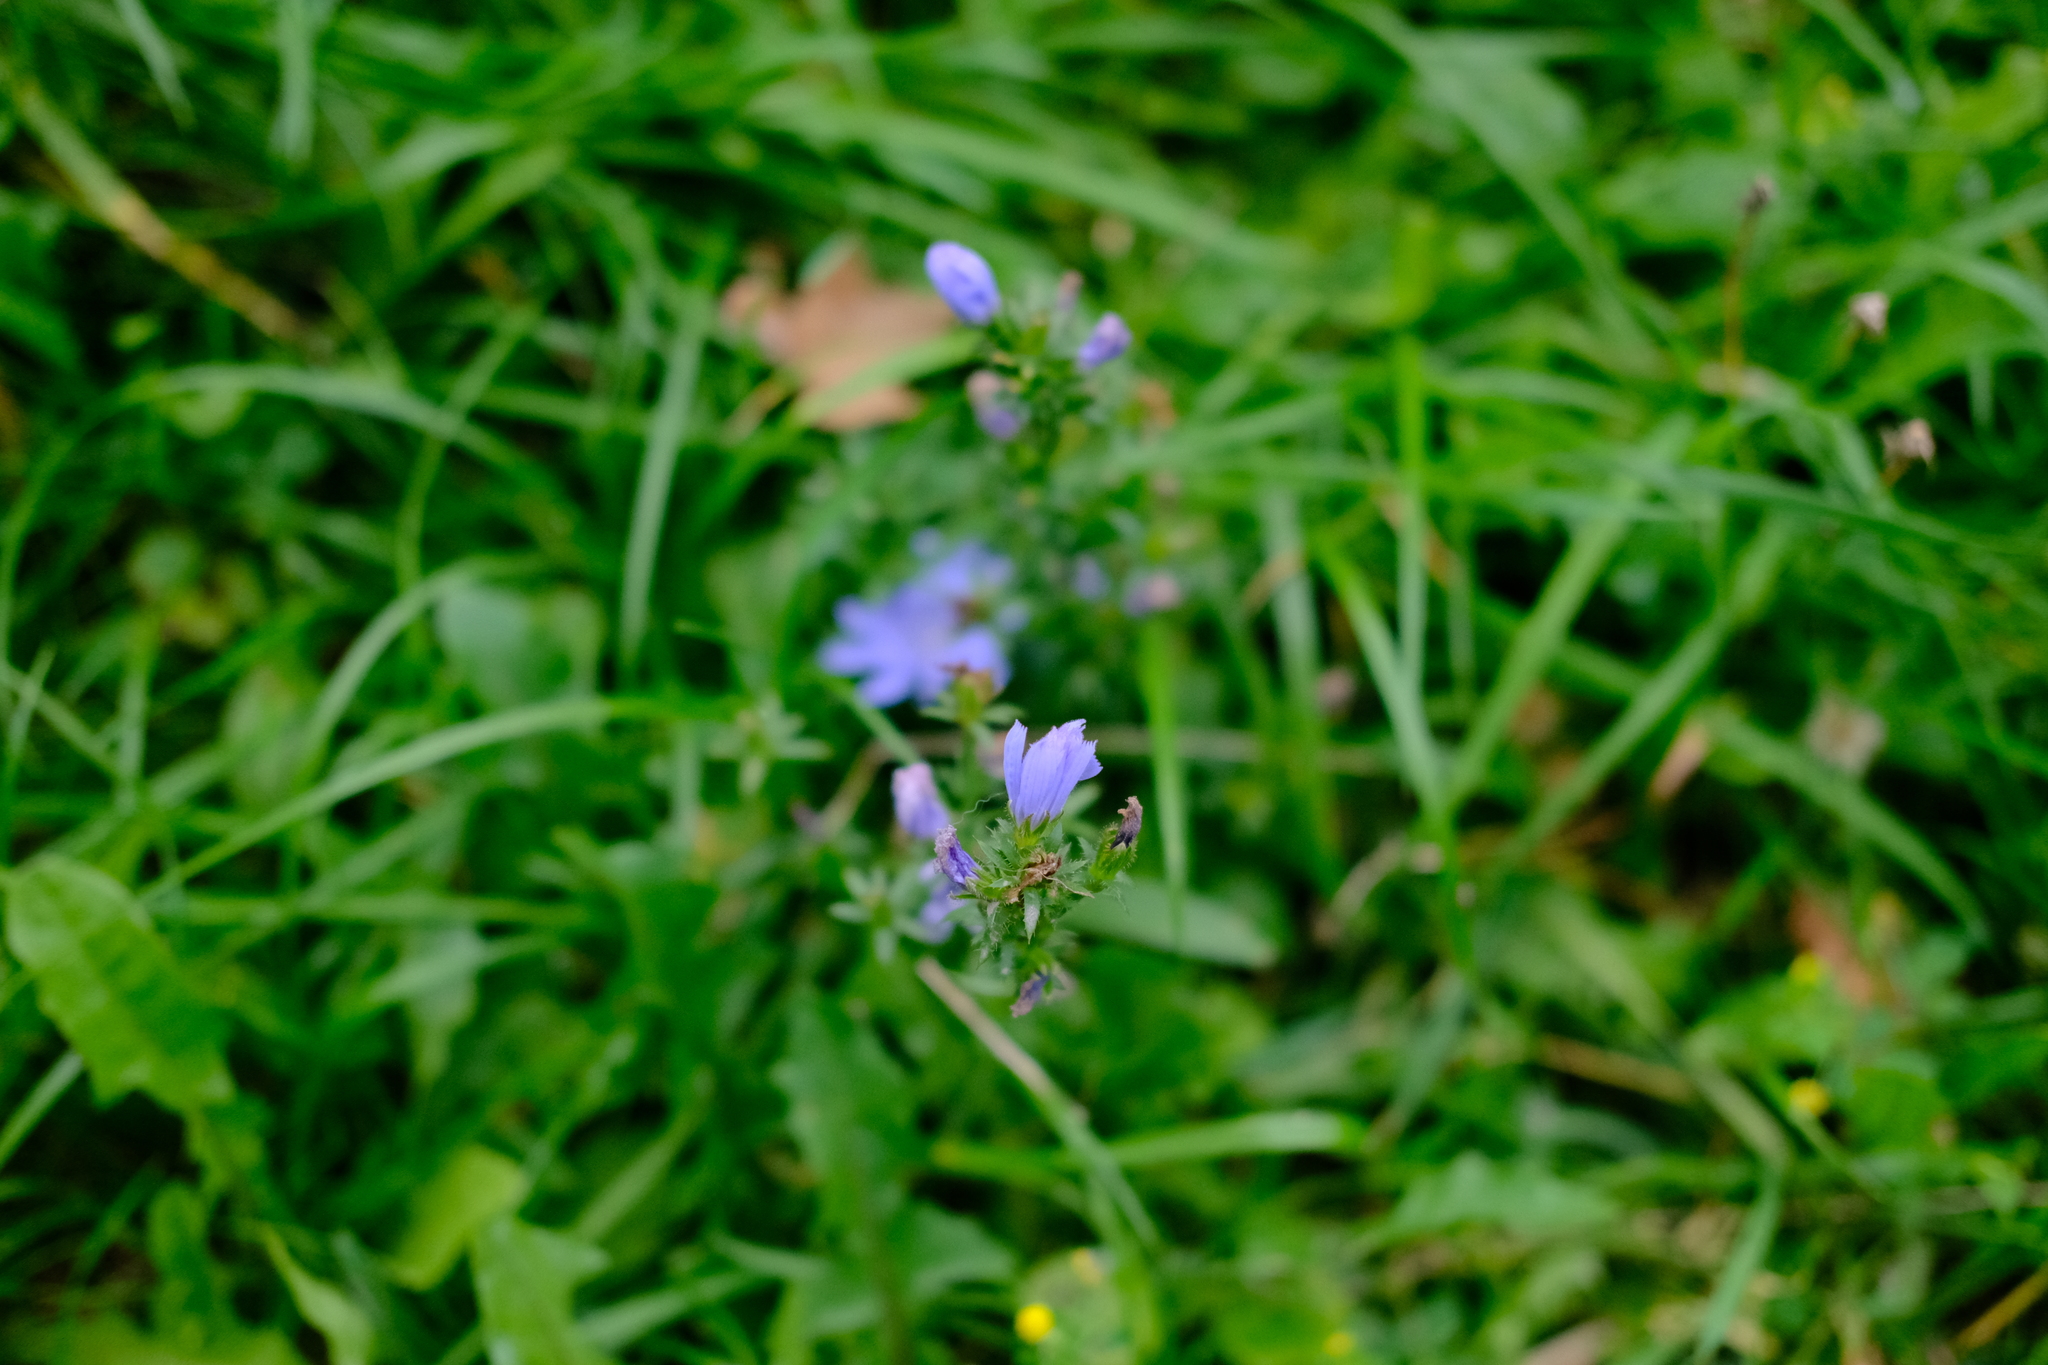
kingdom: Plantae
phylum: Tracheophyta
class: Magnoliopsida
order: Asterales
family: Asteraceae
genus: Cichorium
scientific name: Cichorium intybus
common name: Chicory
